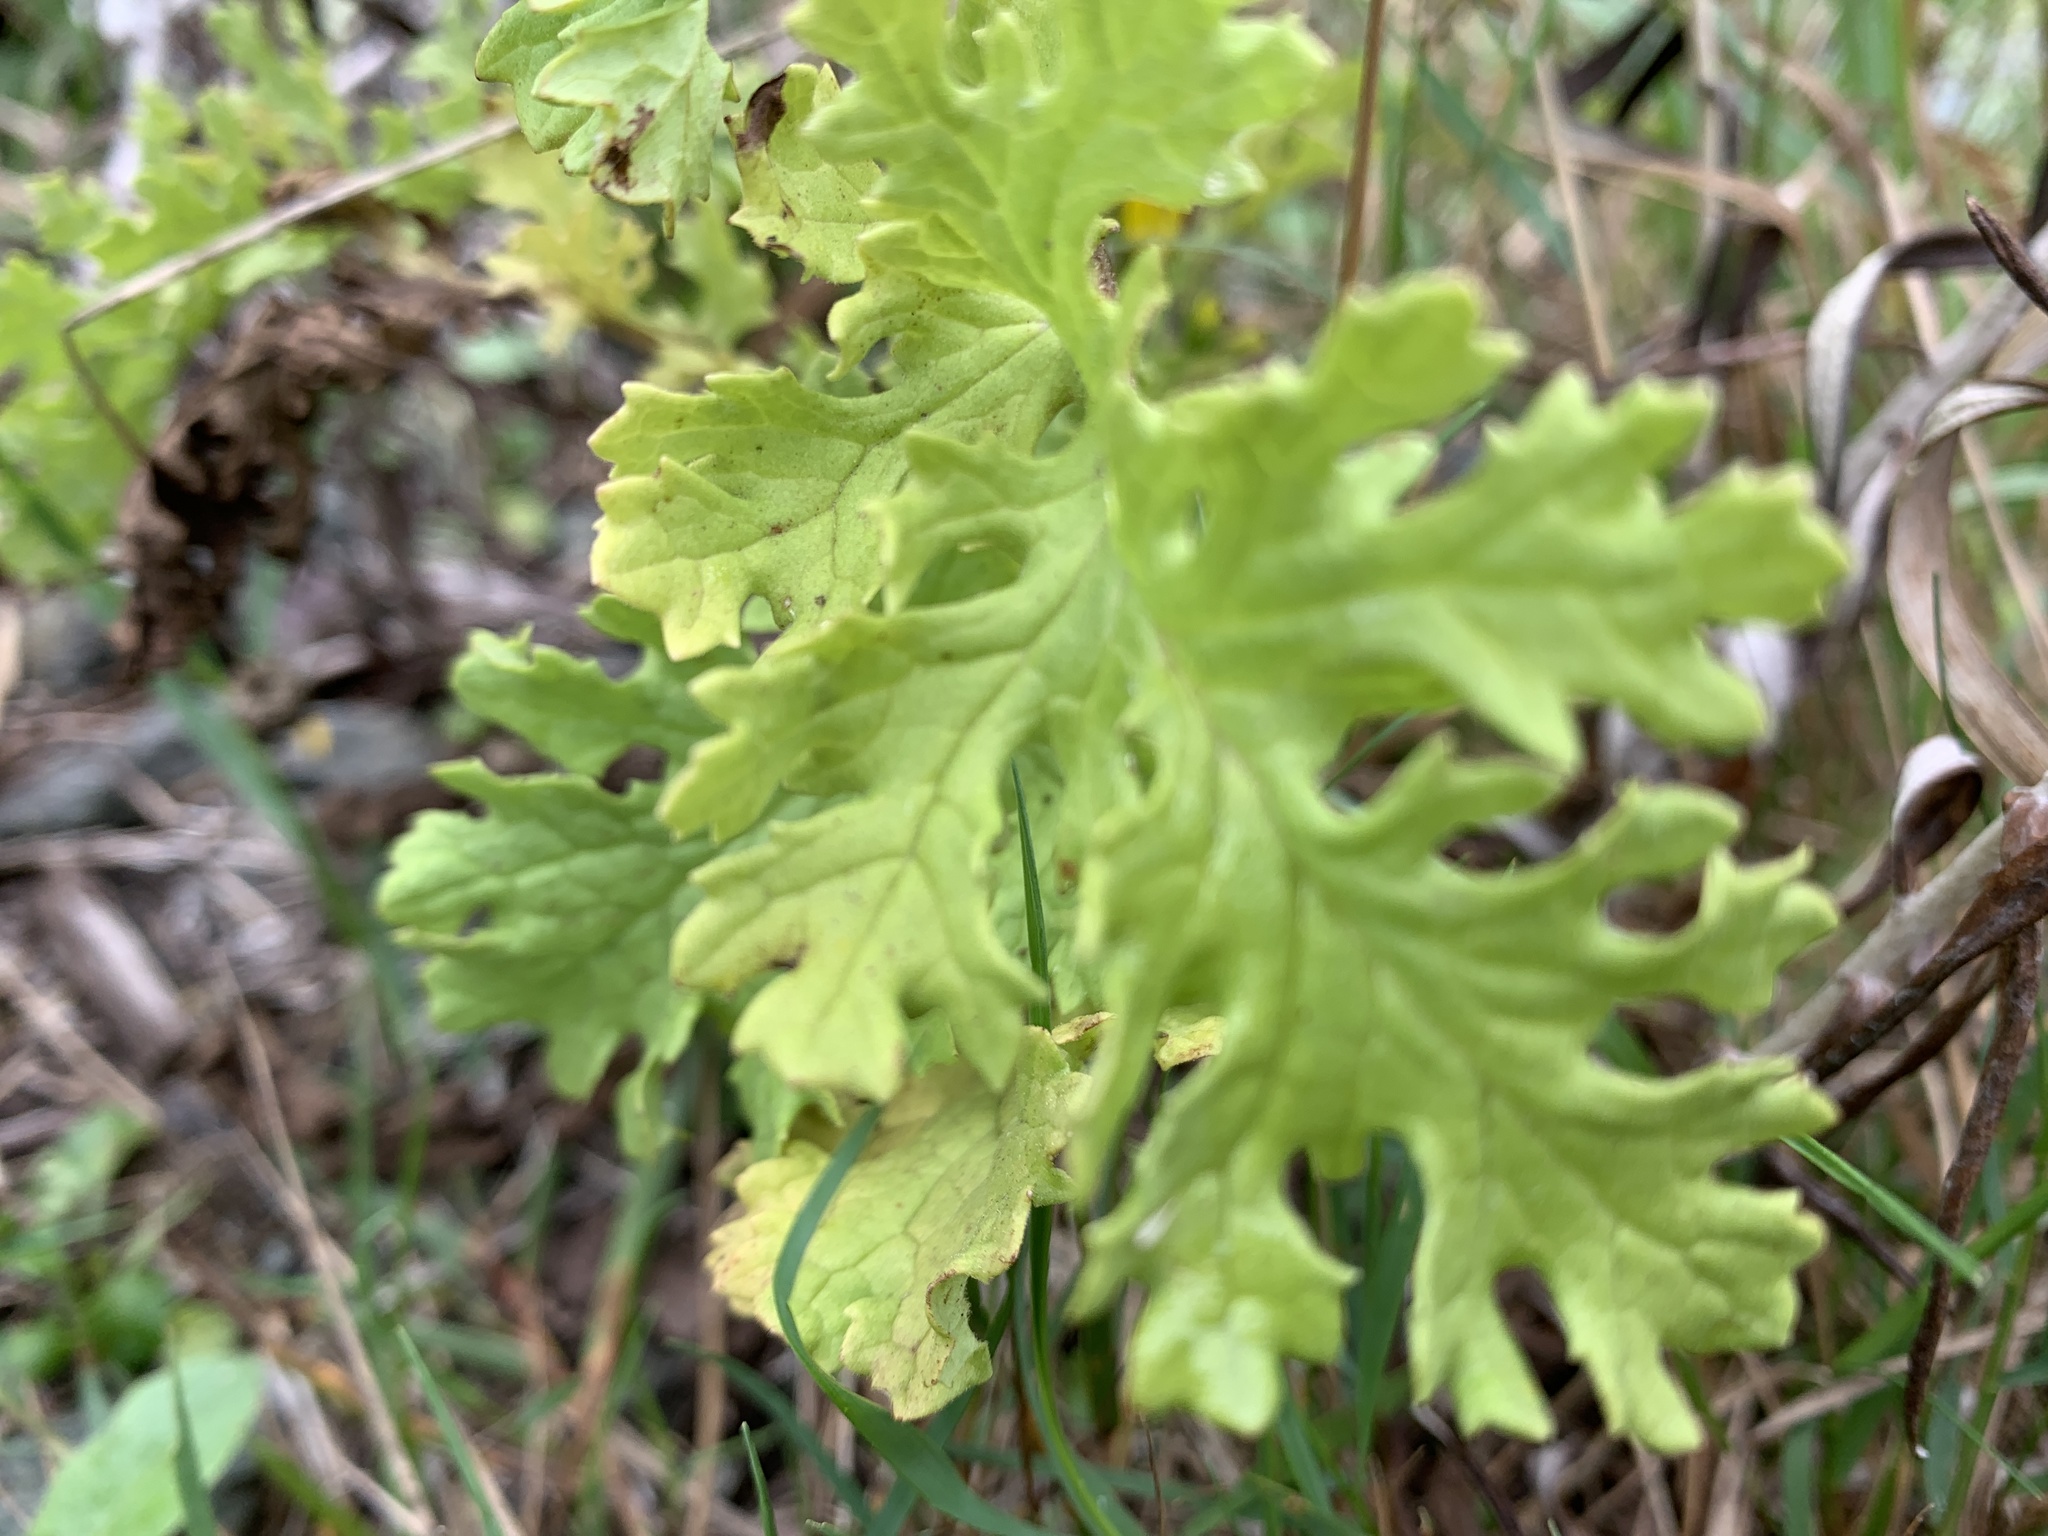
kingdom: Plantae
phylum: Tracheophyta
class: Magnoliopsida
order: Asterales
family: Asteraceae
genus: Jacobaea
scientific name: Jacobaea vulgaris
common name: Stinking willie
